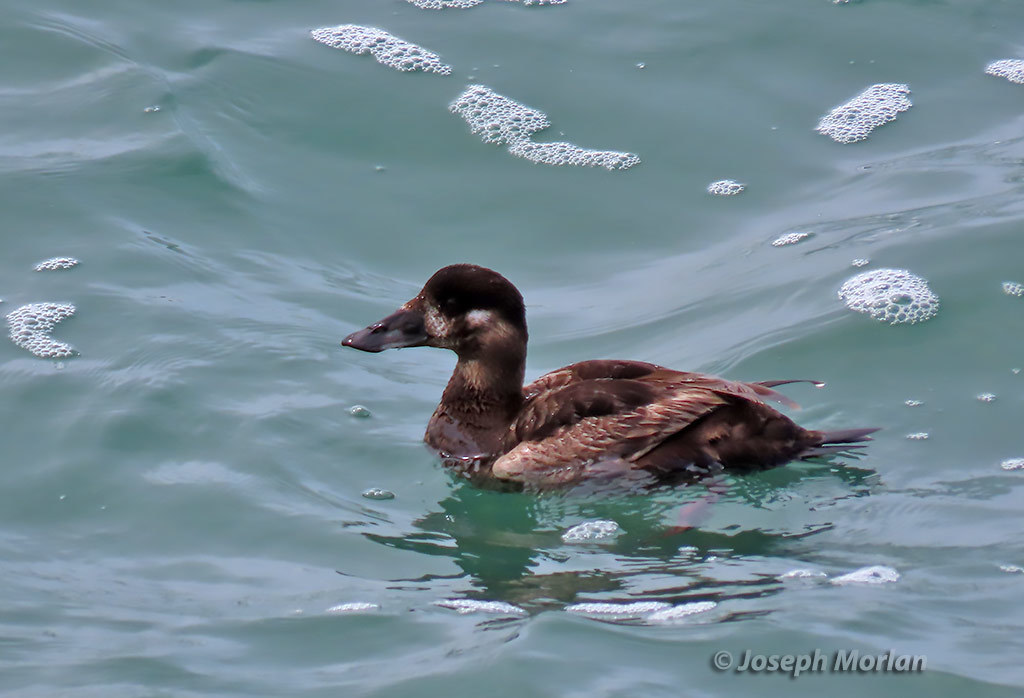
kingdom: Animalia
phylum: Chordata
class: Aves
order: Anseriformes
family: Anatidae
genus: Melanitta
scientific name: Melanitta perspicillata
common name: Surf scoter
